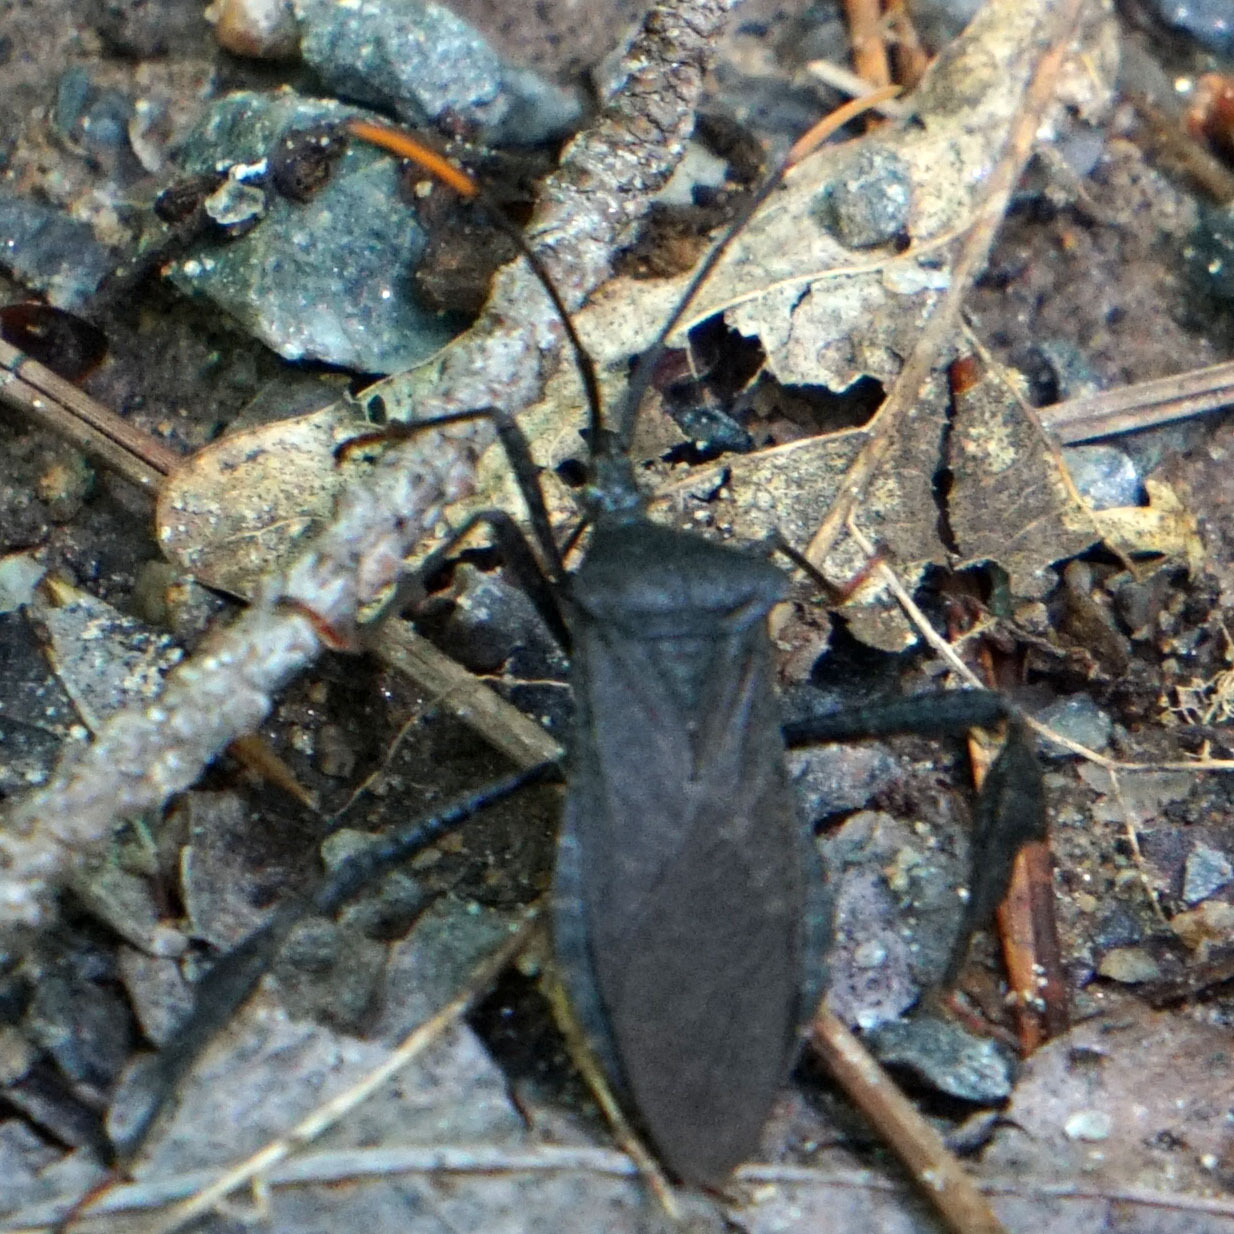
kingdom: Animalia
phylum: Arthropoda
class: Insecta
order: Hemiptera
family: Coreidae
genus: Acanthocephala
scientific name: Acanthocephala terminalis
